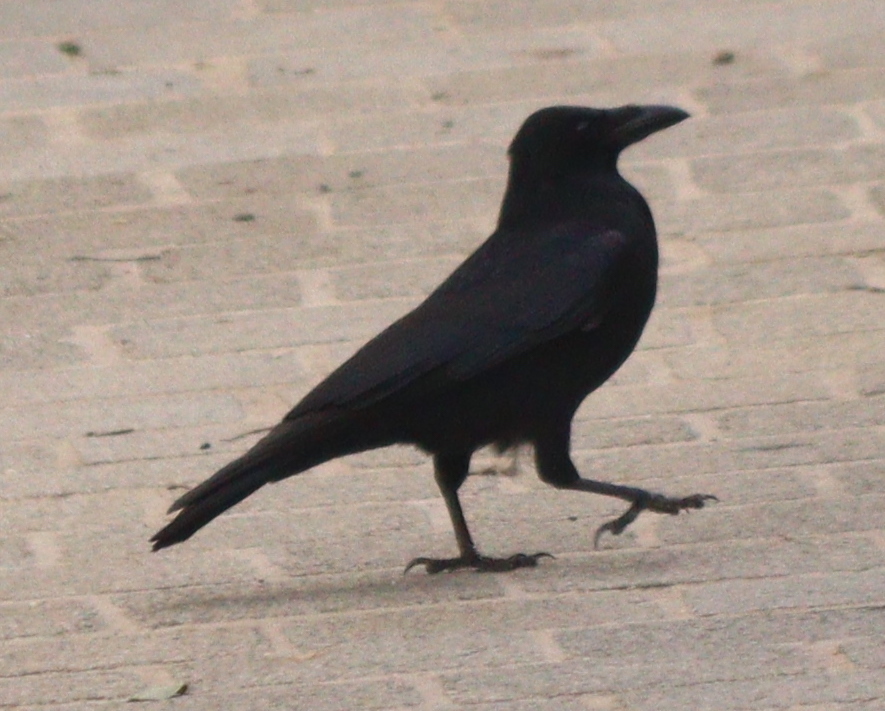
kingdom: Animalia
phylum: Chordata
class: Aves
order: Passeriformes
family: Corvidae
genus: Corvus
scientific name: Corvus corone
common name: Carrion crow
